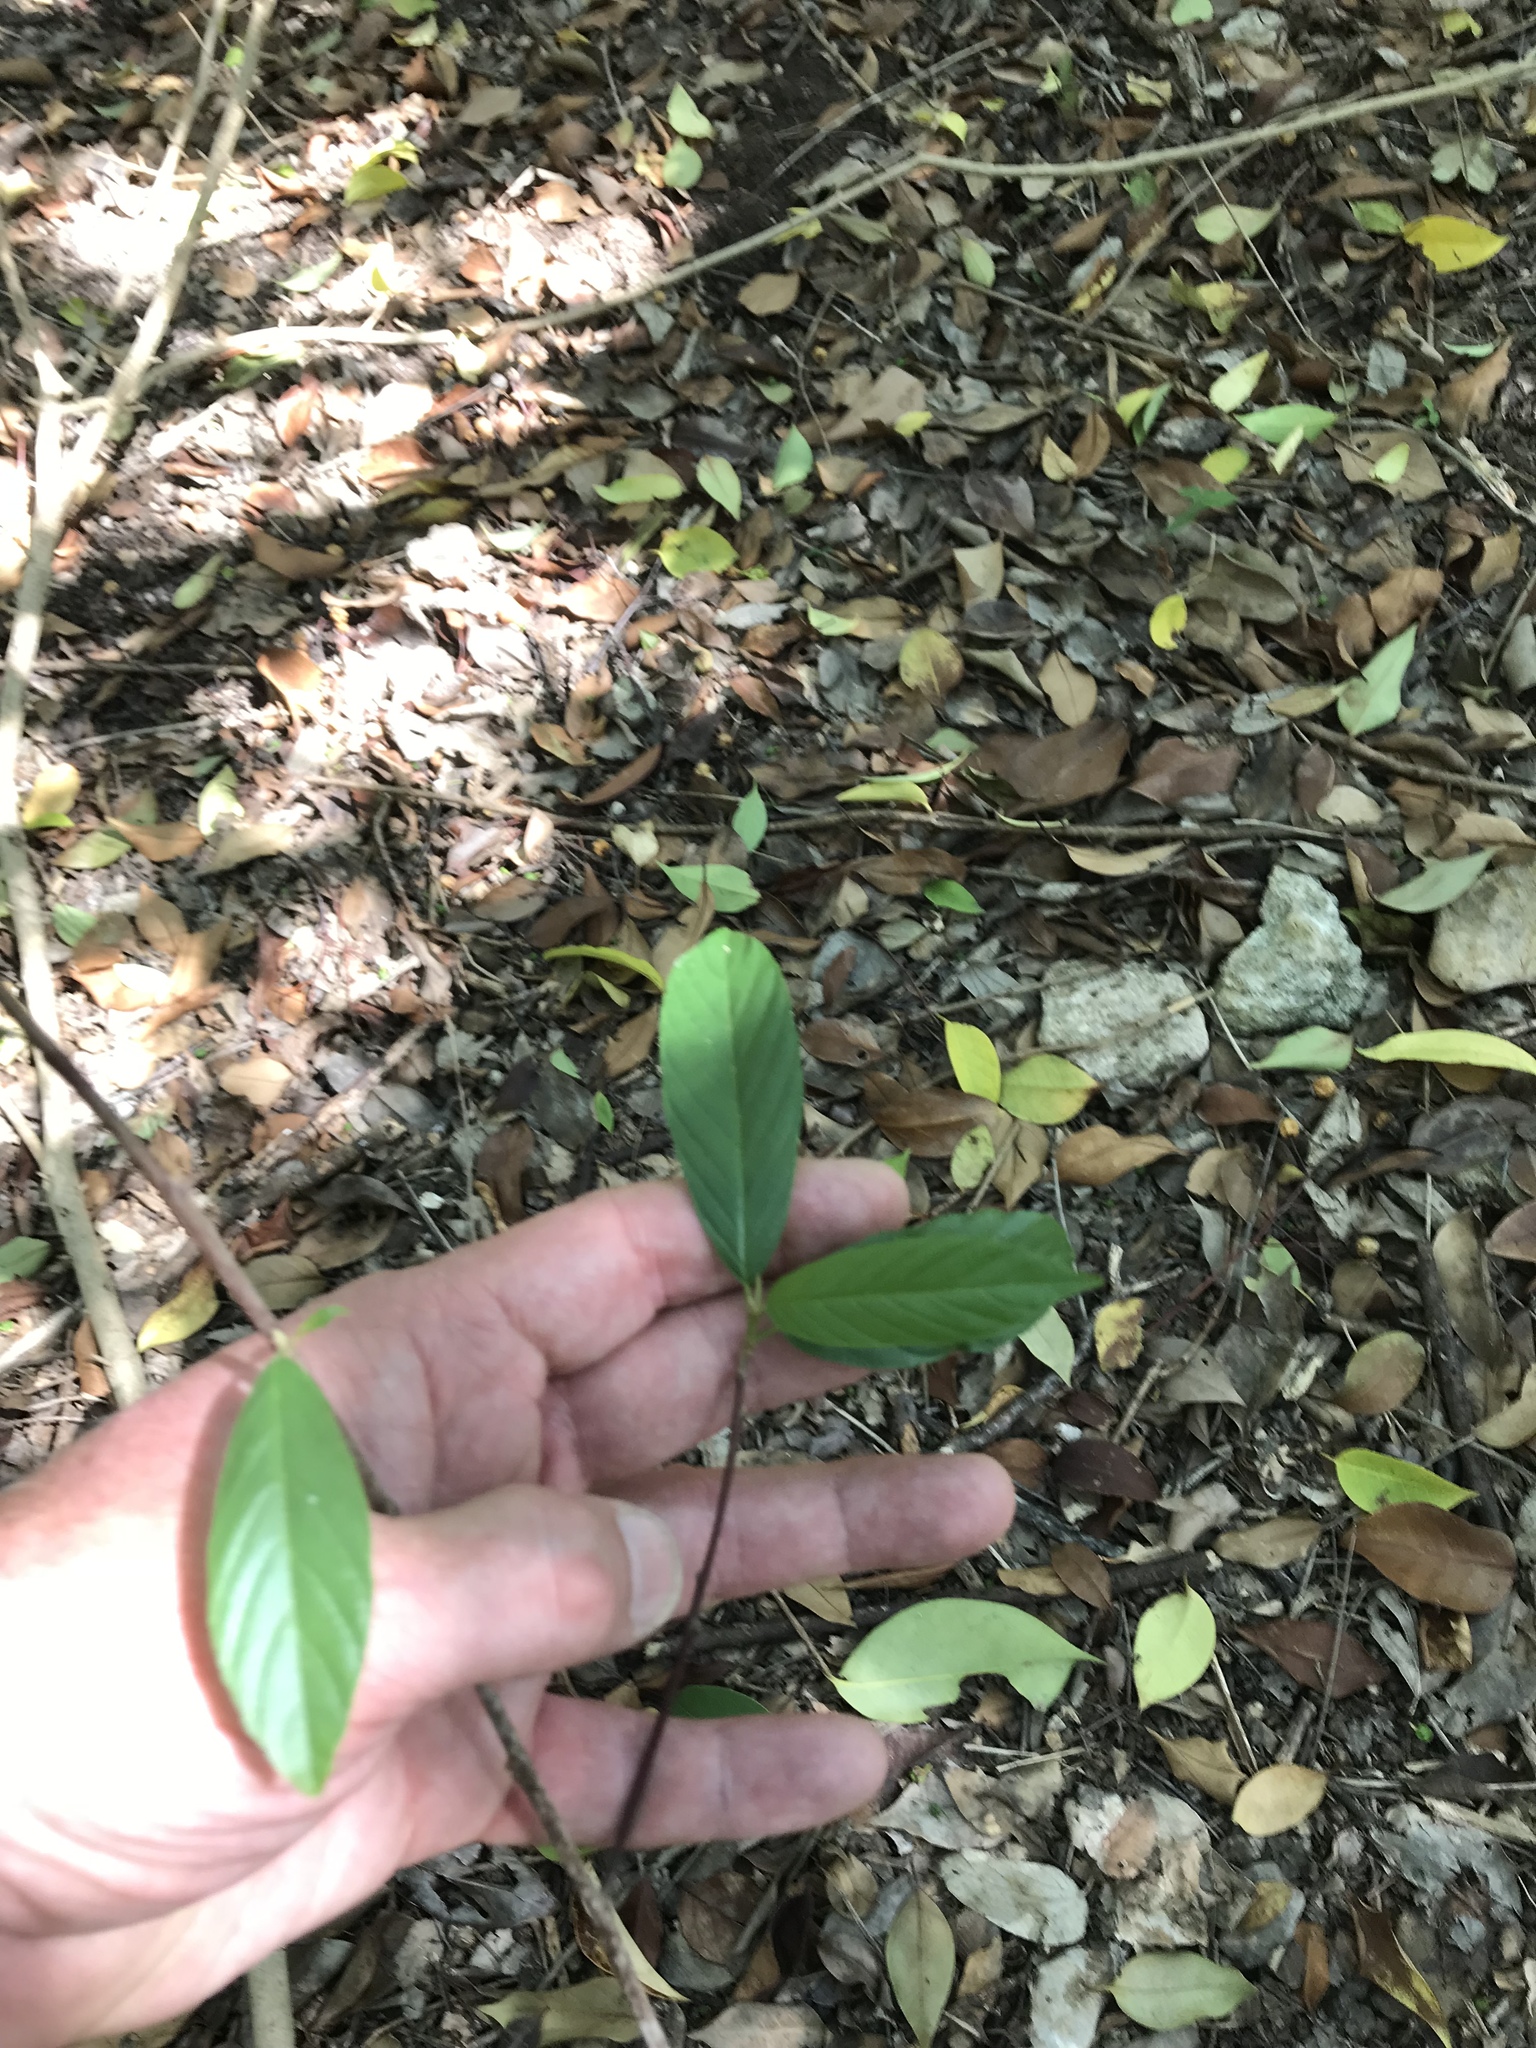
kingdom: Plantae
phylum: Tracheophyta
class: Magnoliopsida
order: Rosales
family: Rhamnaceae
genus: Frangula
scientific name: Frangula caroliniana
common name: Carolina buckthorn
